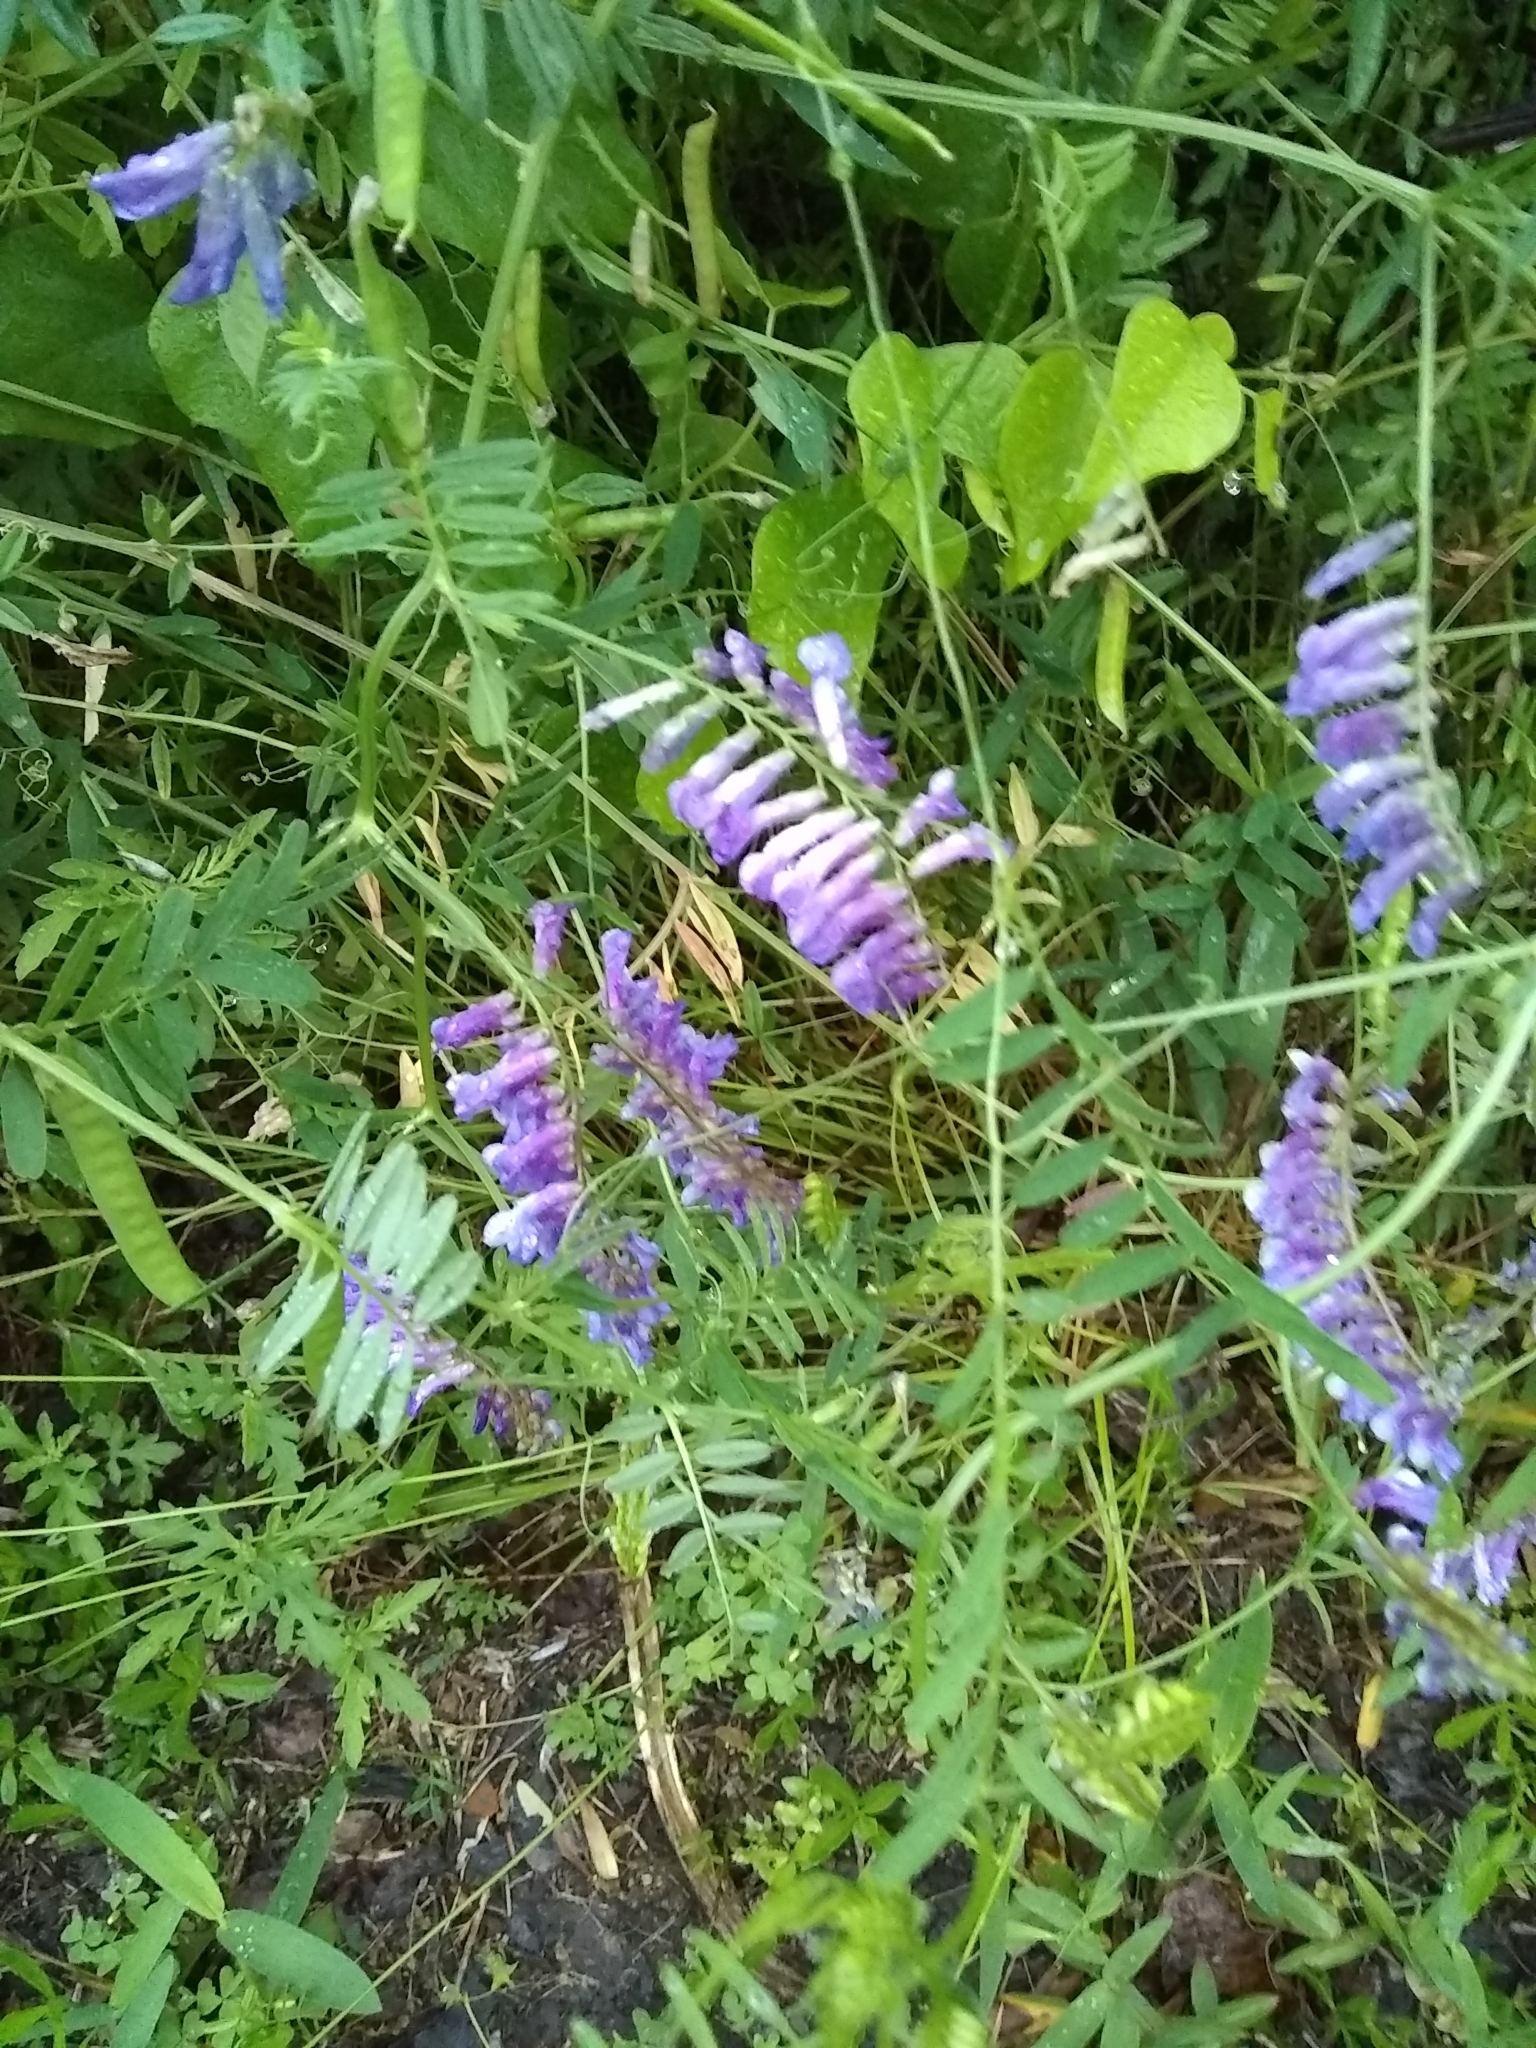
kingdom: Plantae
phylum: Tracheophyta
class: Magnoliopsida
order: Fabales
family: Fabaceae
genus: Vicia
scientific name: Vicia villosa
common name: Fodder vetch
